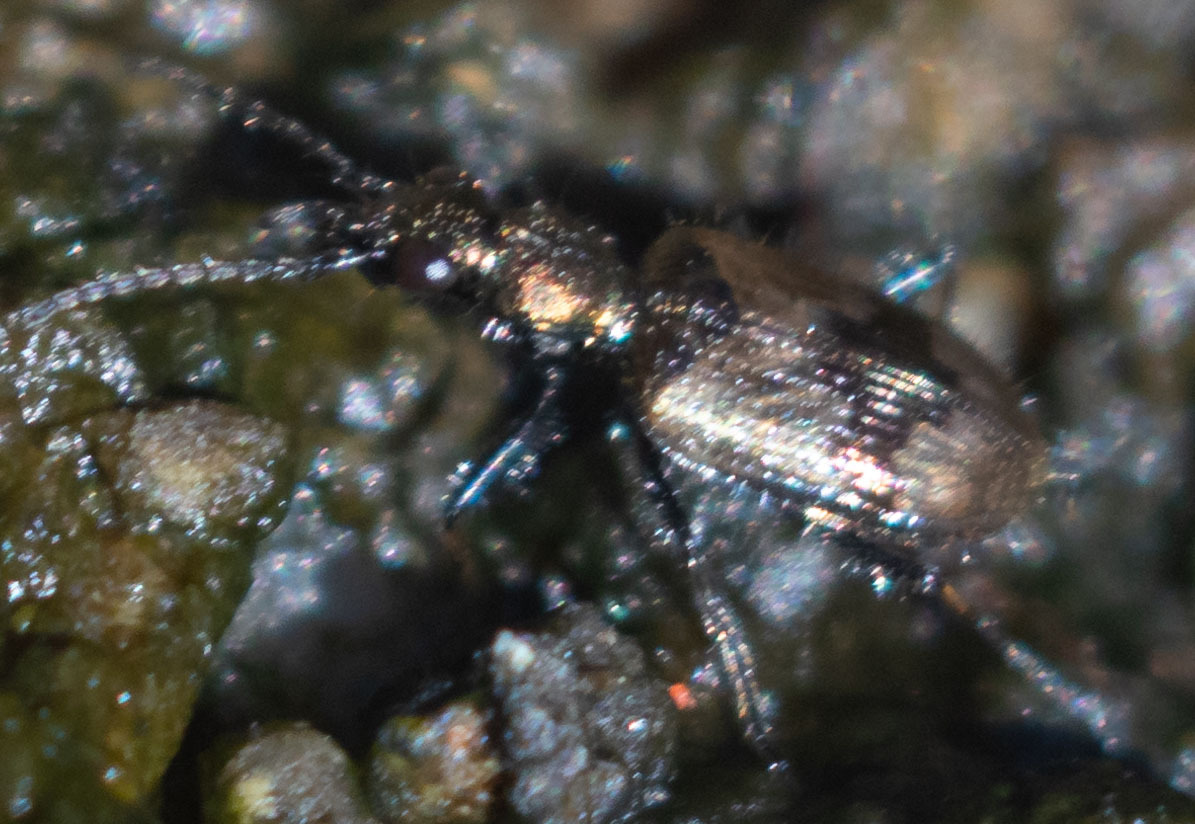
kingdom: Animalia
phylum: Arthropoda
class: Insecta
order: Coleoptera
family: Carabidae
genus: Lachnophorus
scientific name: Lachnophorus elegantulus
